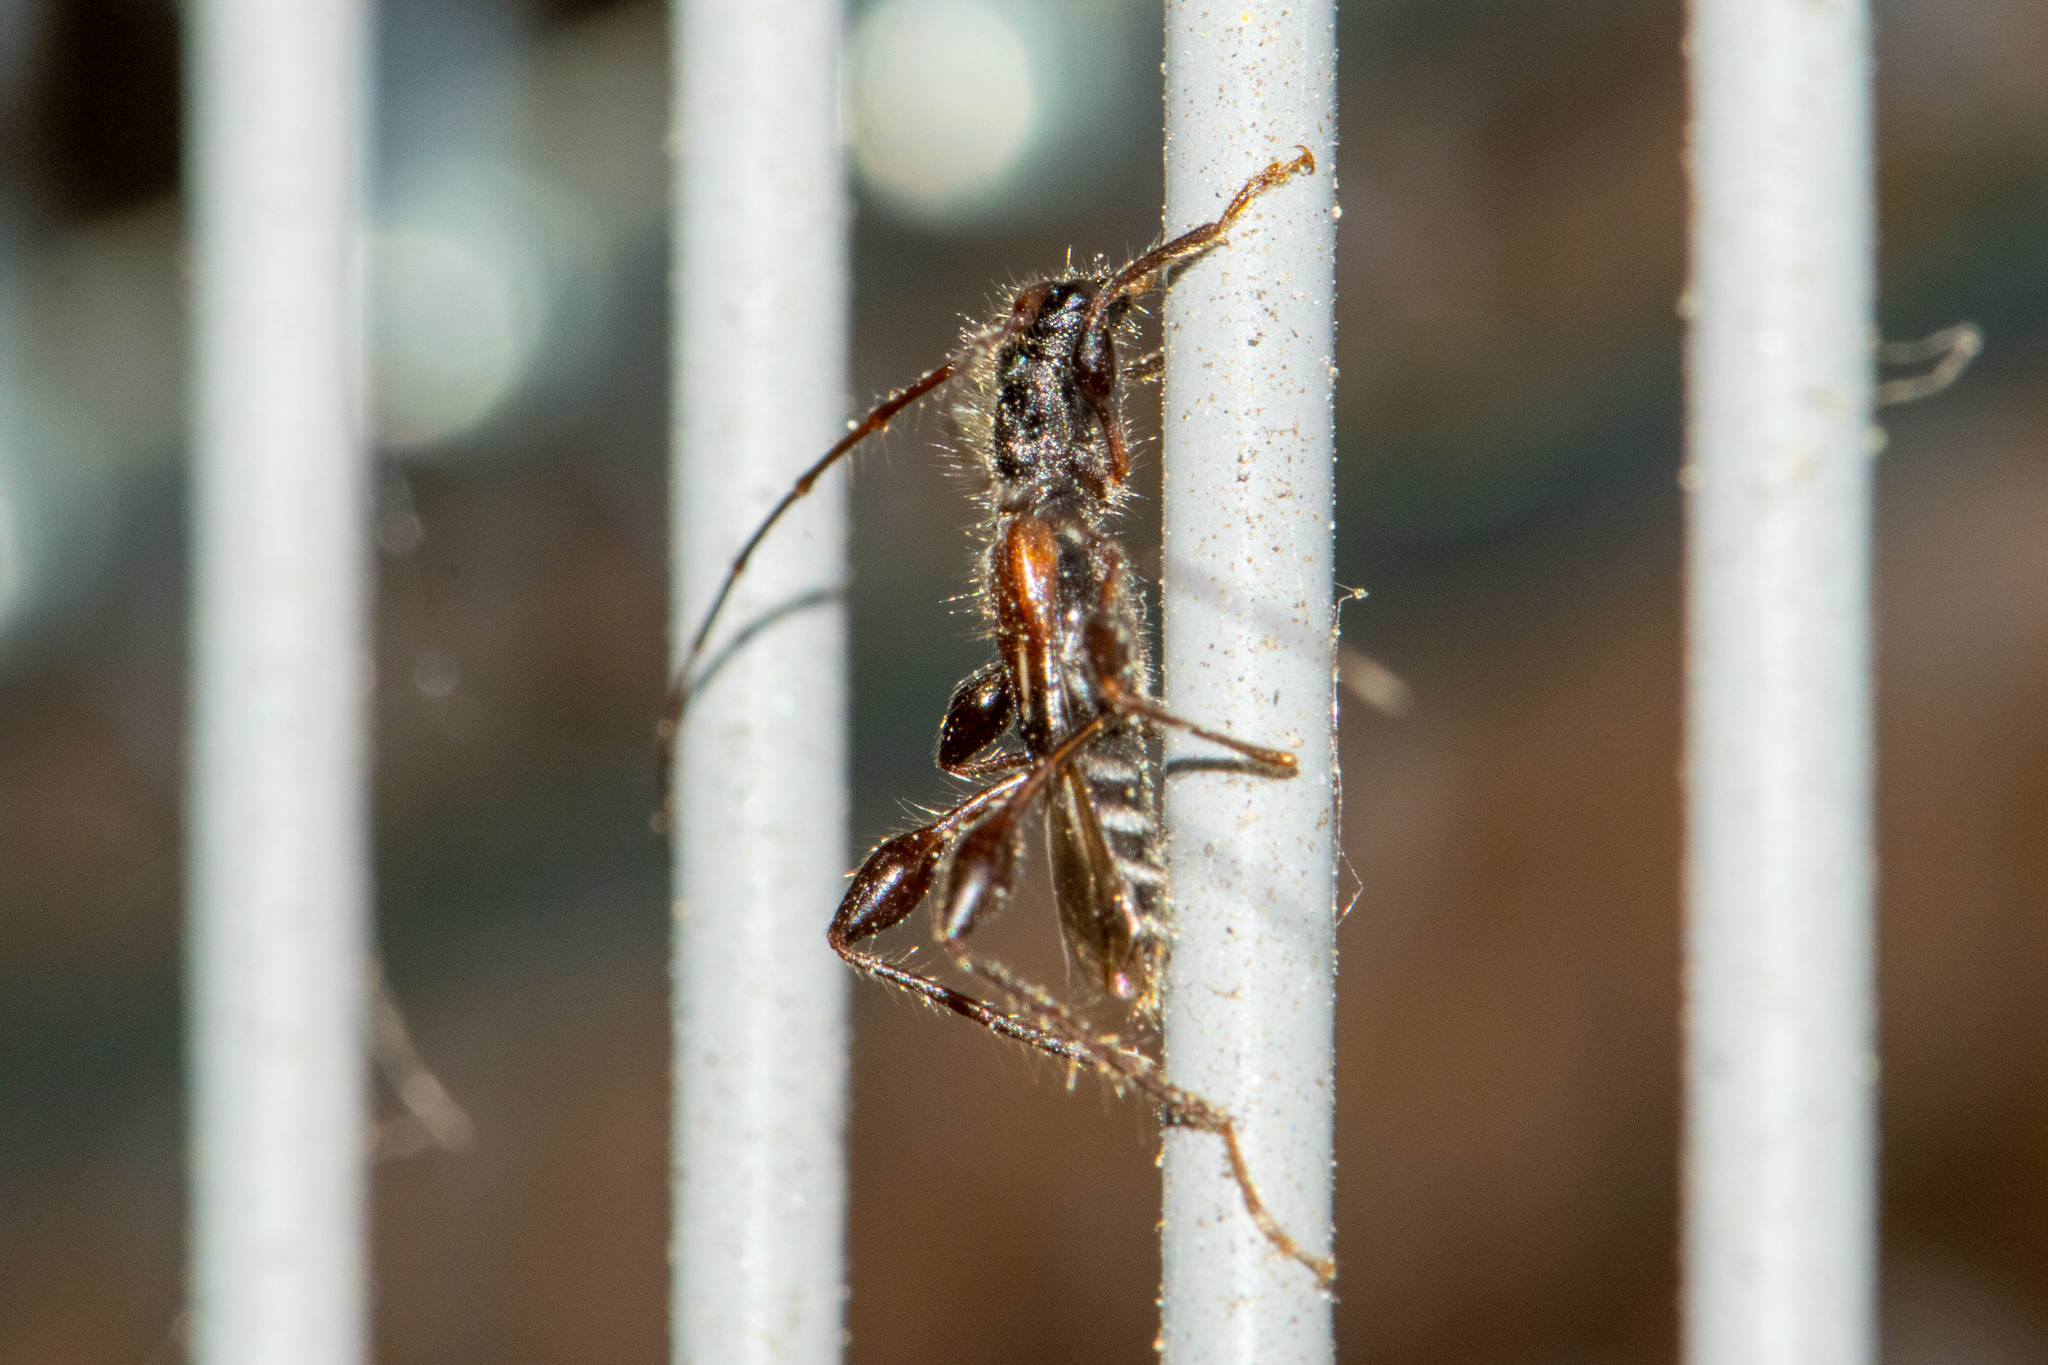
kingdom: Animalia
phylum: Arthropoda
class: Insecta
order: Coleoptera
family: Cerambycidae
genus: Molorchus
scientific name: Molorchus minor
